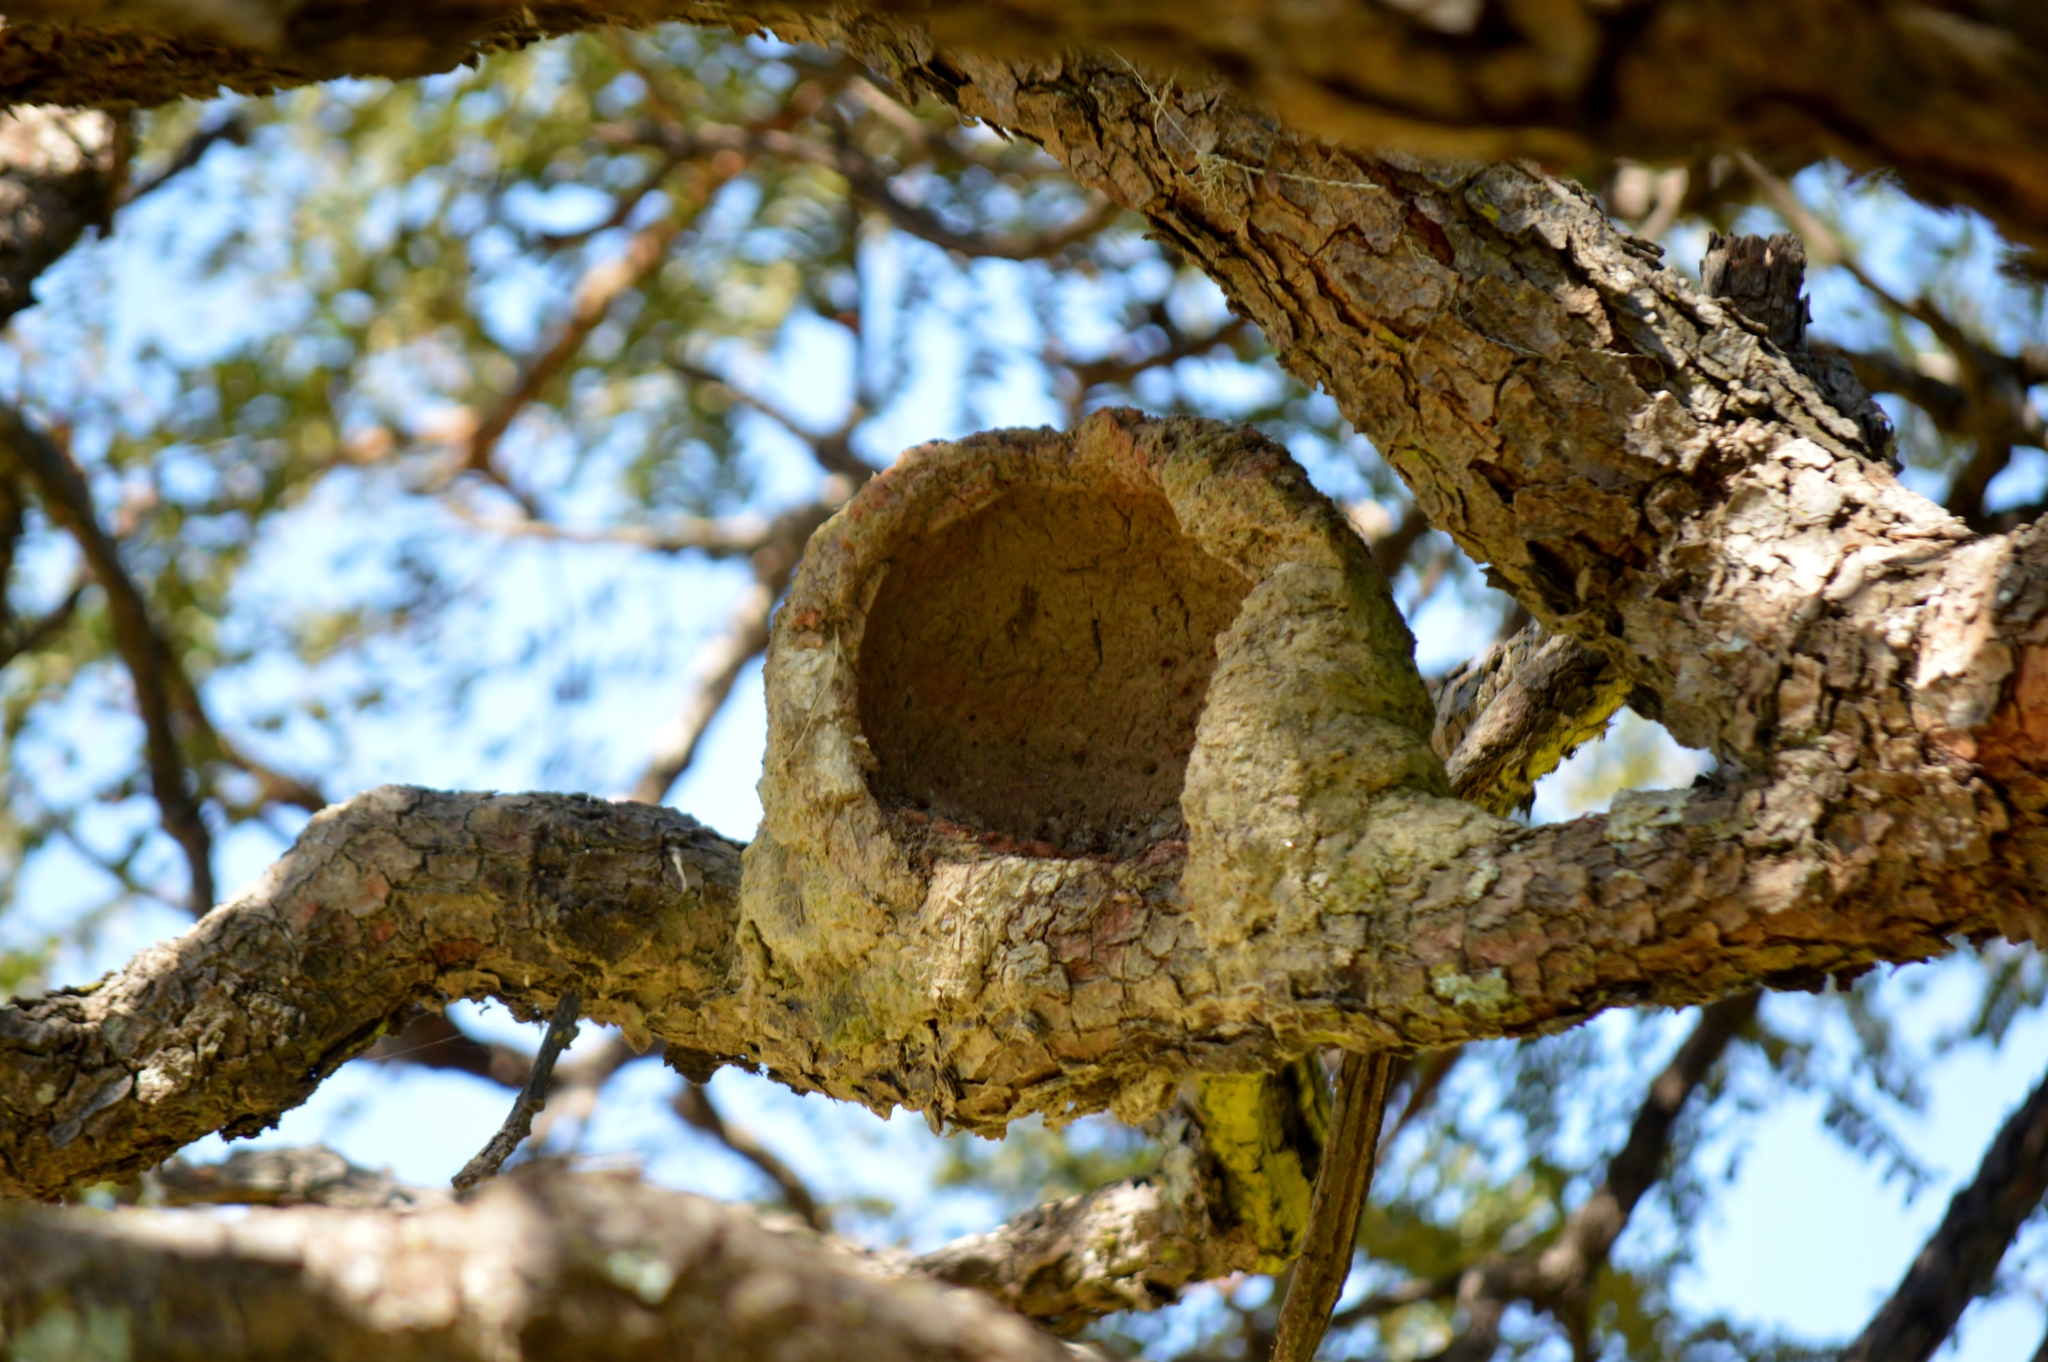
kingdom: Animalia
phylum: Chordata
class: Aves
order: Passeriformes
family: Furnariidae
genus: Furnarius
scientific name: Furnarius rufus
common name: Rufous hornero
